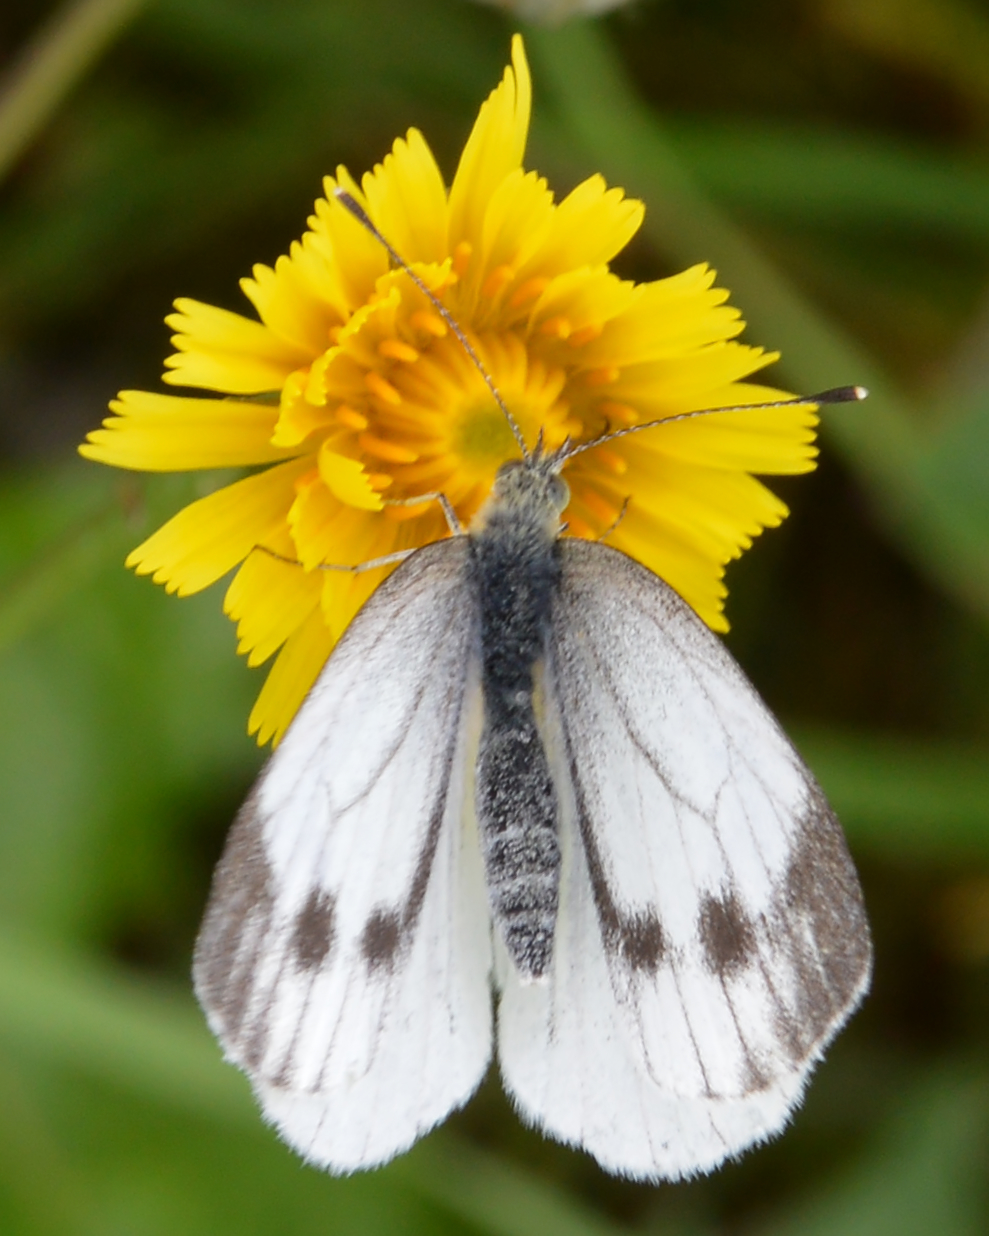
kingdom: Animalia
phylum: Arthropoda
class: Insecta
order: Lepidoptera
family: Pieridae
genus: Pieris
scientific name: Pieris napi
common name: Green-veined white
